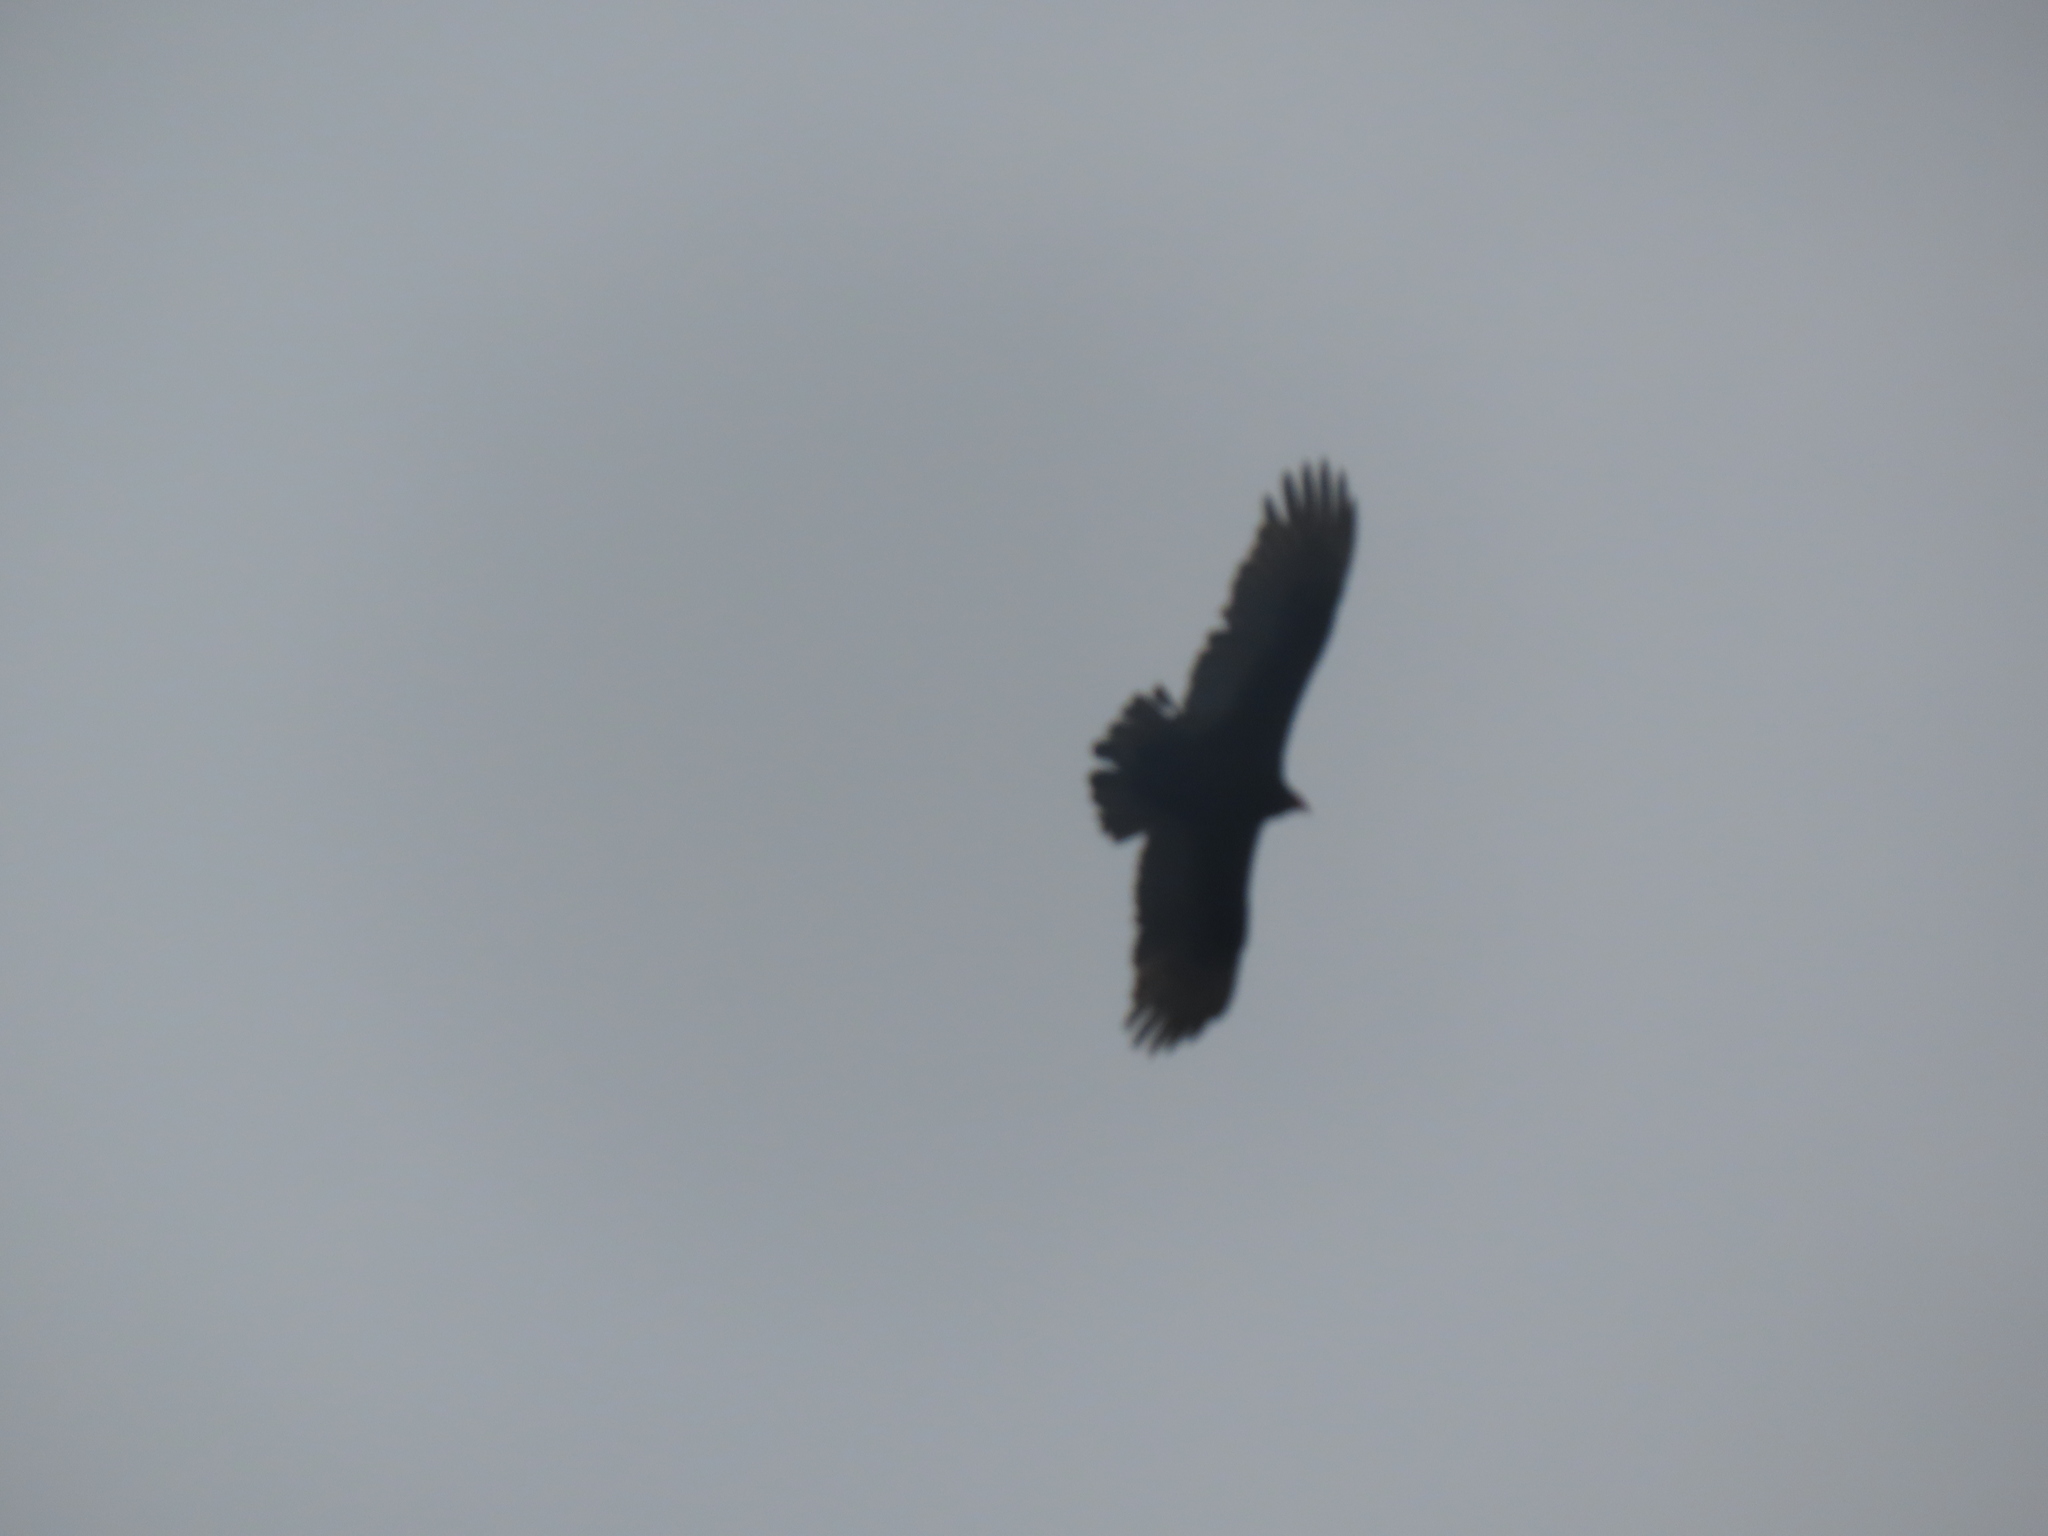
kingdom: Animalia
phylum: Chordata
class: Aves
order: Accipitriformes
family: Cathartidae
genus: Cathartes
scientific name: Cathartes aura
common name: Turkey vulture
